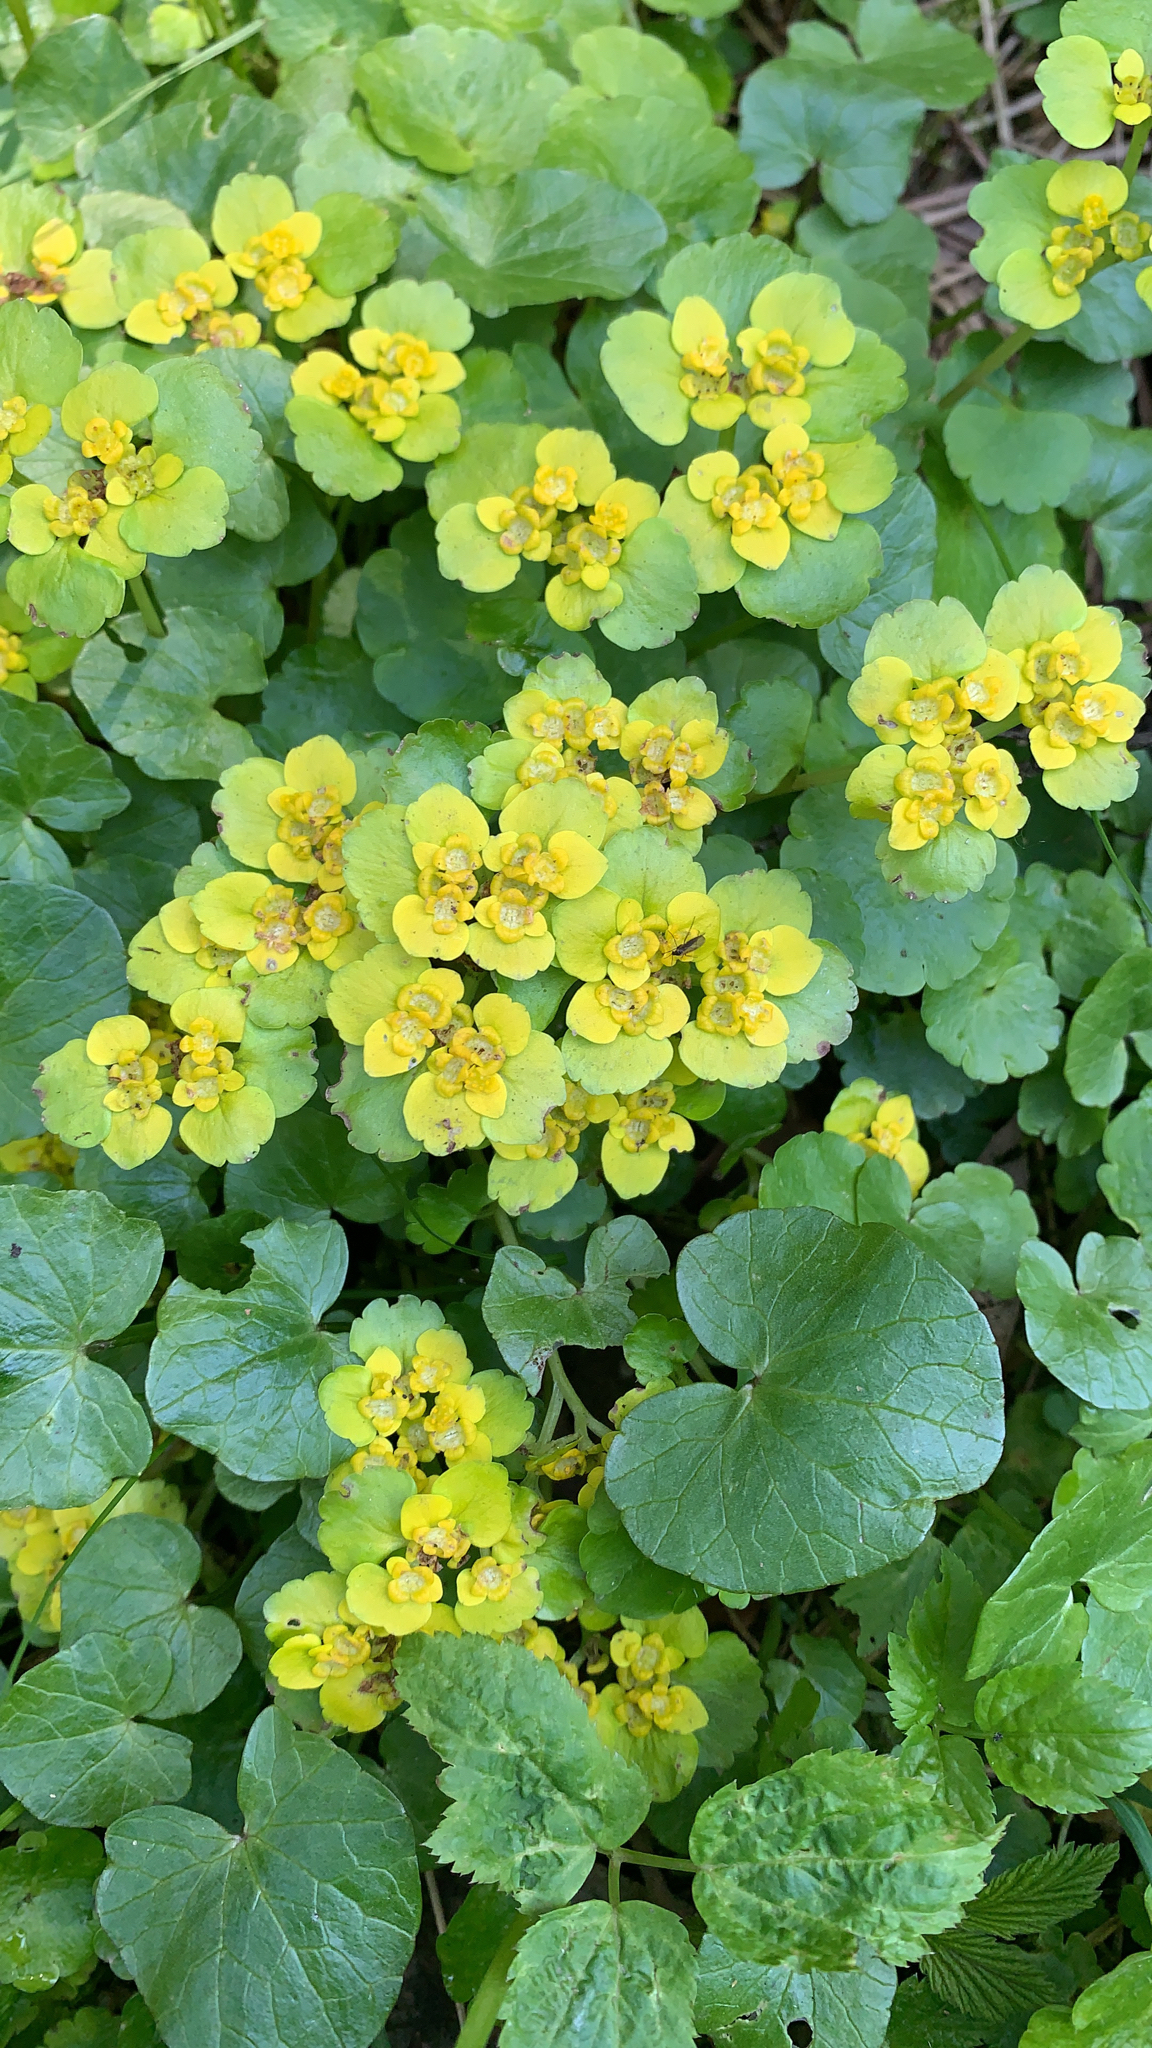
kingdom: Plantae
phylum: Tracheophyta
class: Magnoliopsida
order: Saxifragales
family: Saxifragaceae
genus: Chrysosplenium
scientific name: Chrysosplenium alternifolium
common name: Alternate-leaved golden-saxifrage
